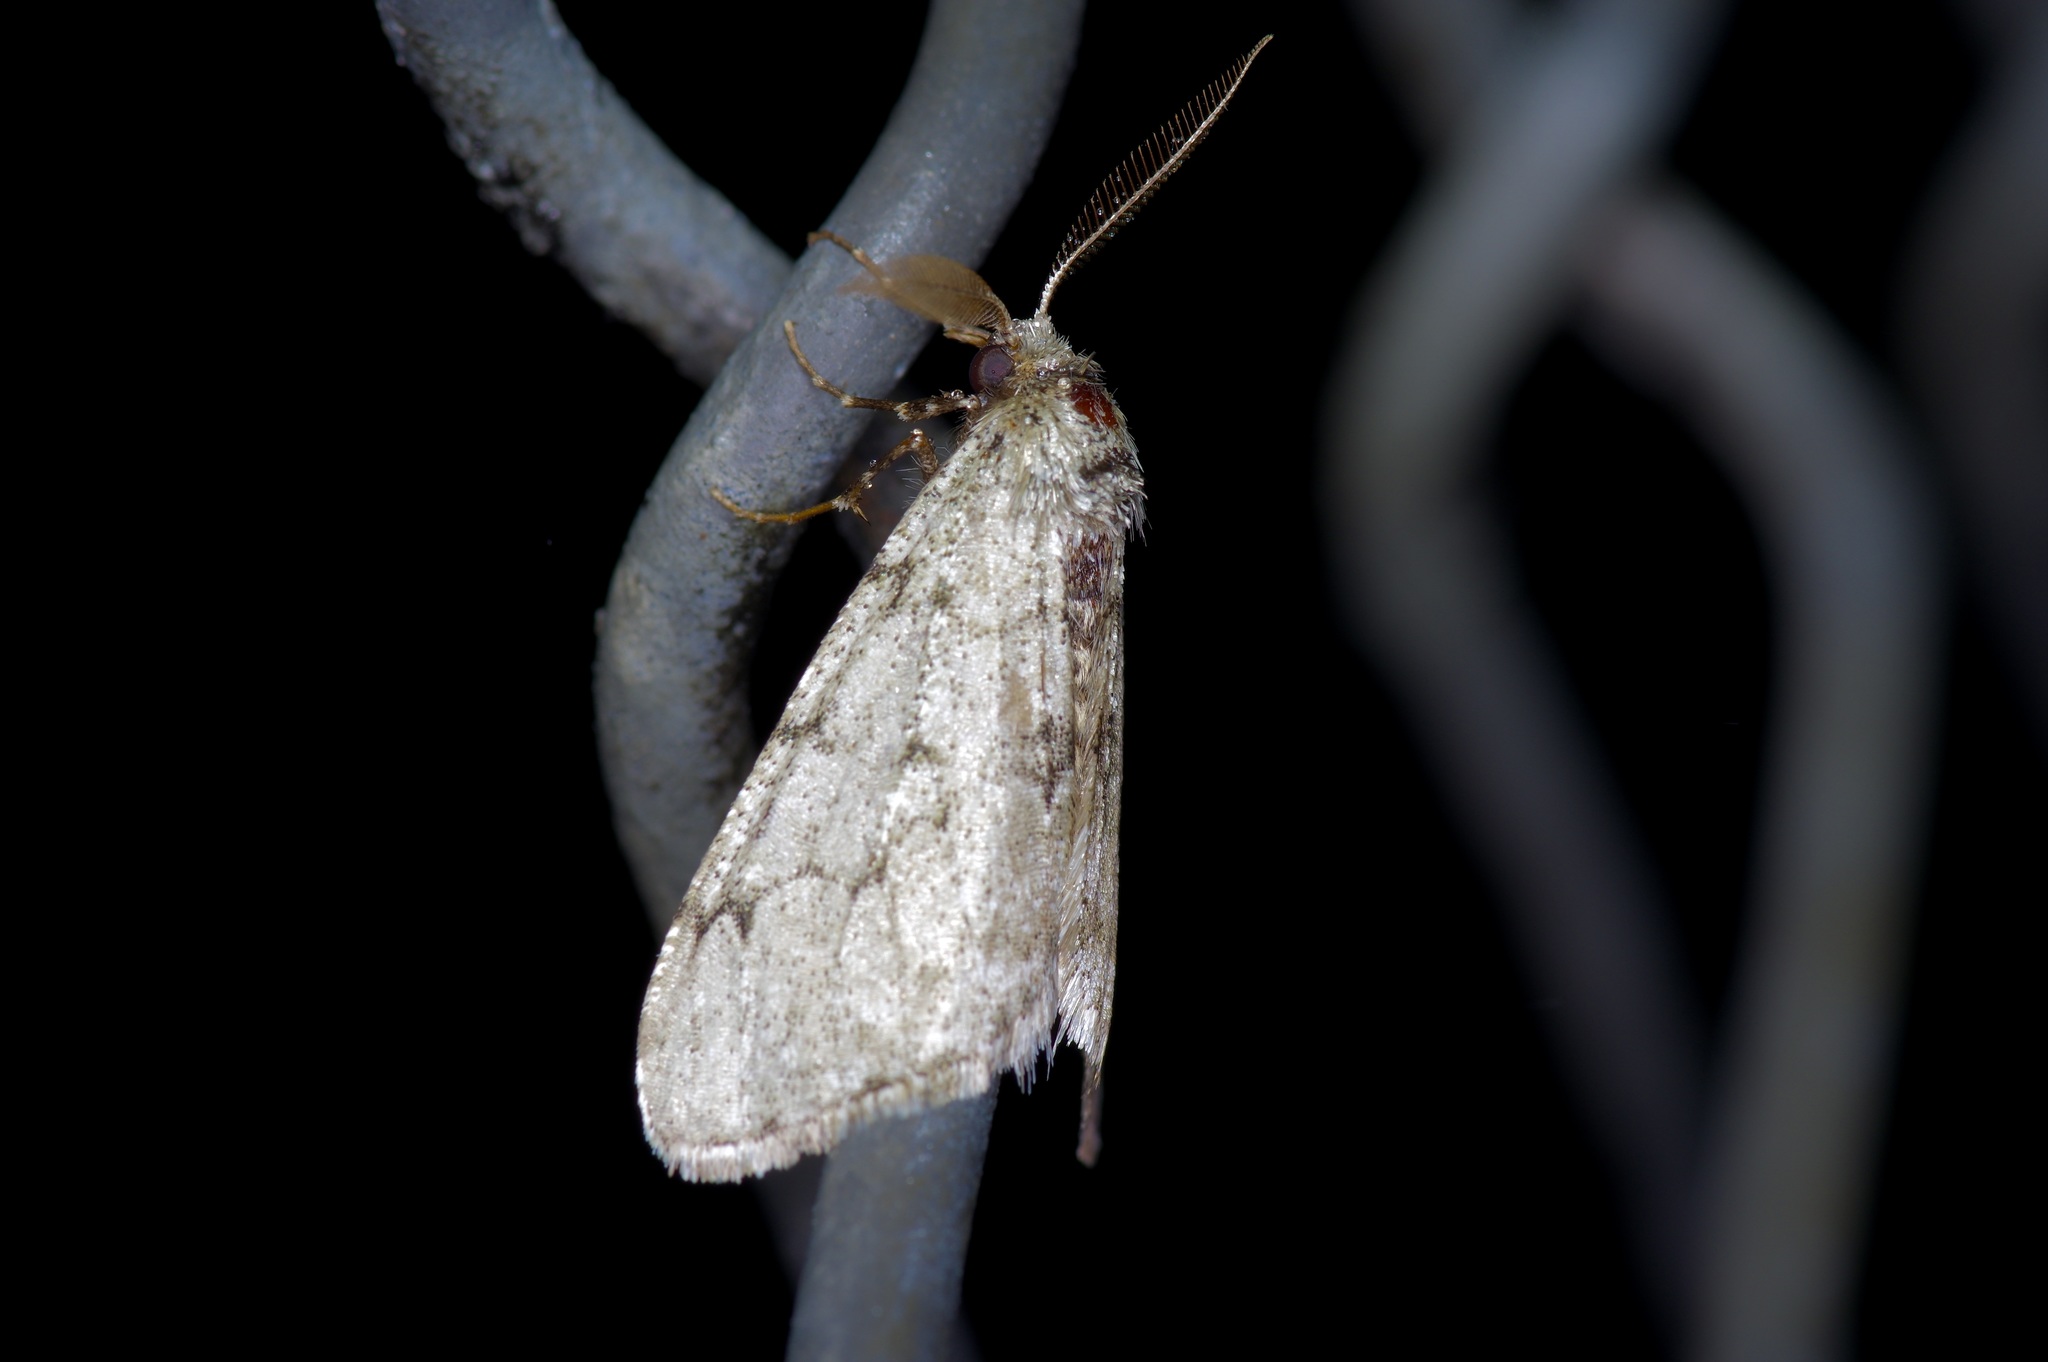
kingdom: Animalia
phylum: Arthropoda
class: Insecta
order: Lepidoptera
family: Geometridae
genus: Phigalia
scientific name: Phigalia strigataria
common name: Small phigalia
